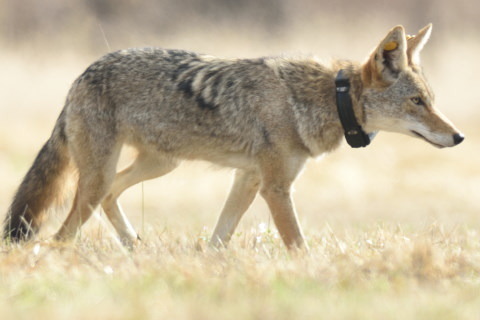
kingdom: Animalia
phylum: Chordata
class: Mammalia
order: Carnivora
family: Canidae
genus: Canis
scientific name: Canis latrans
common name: Coyote
